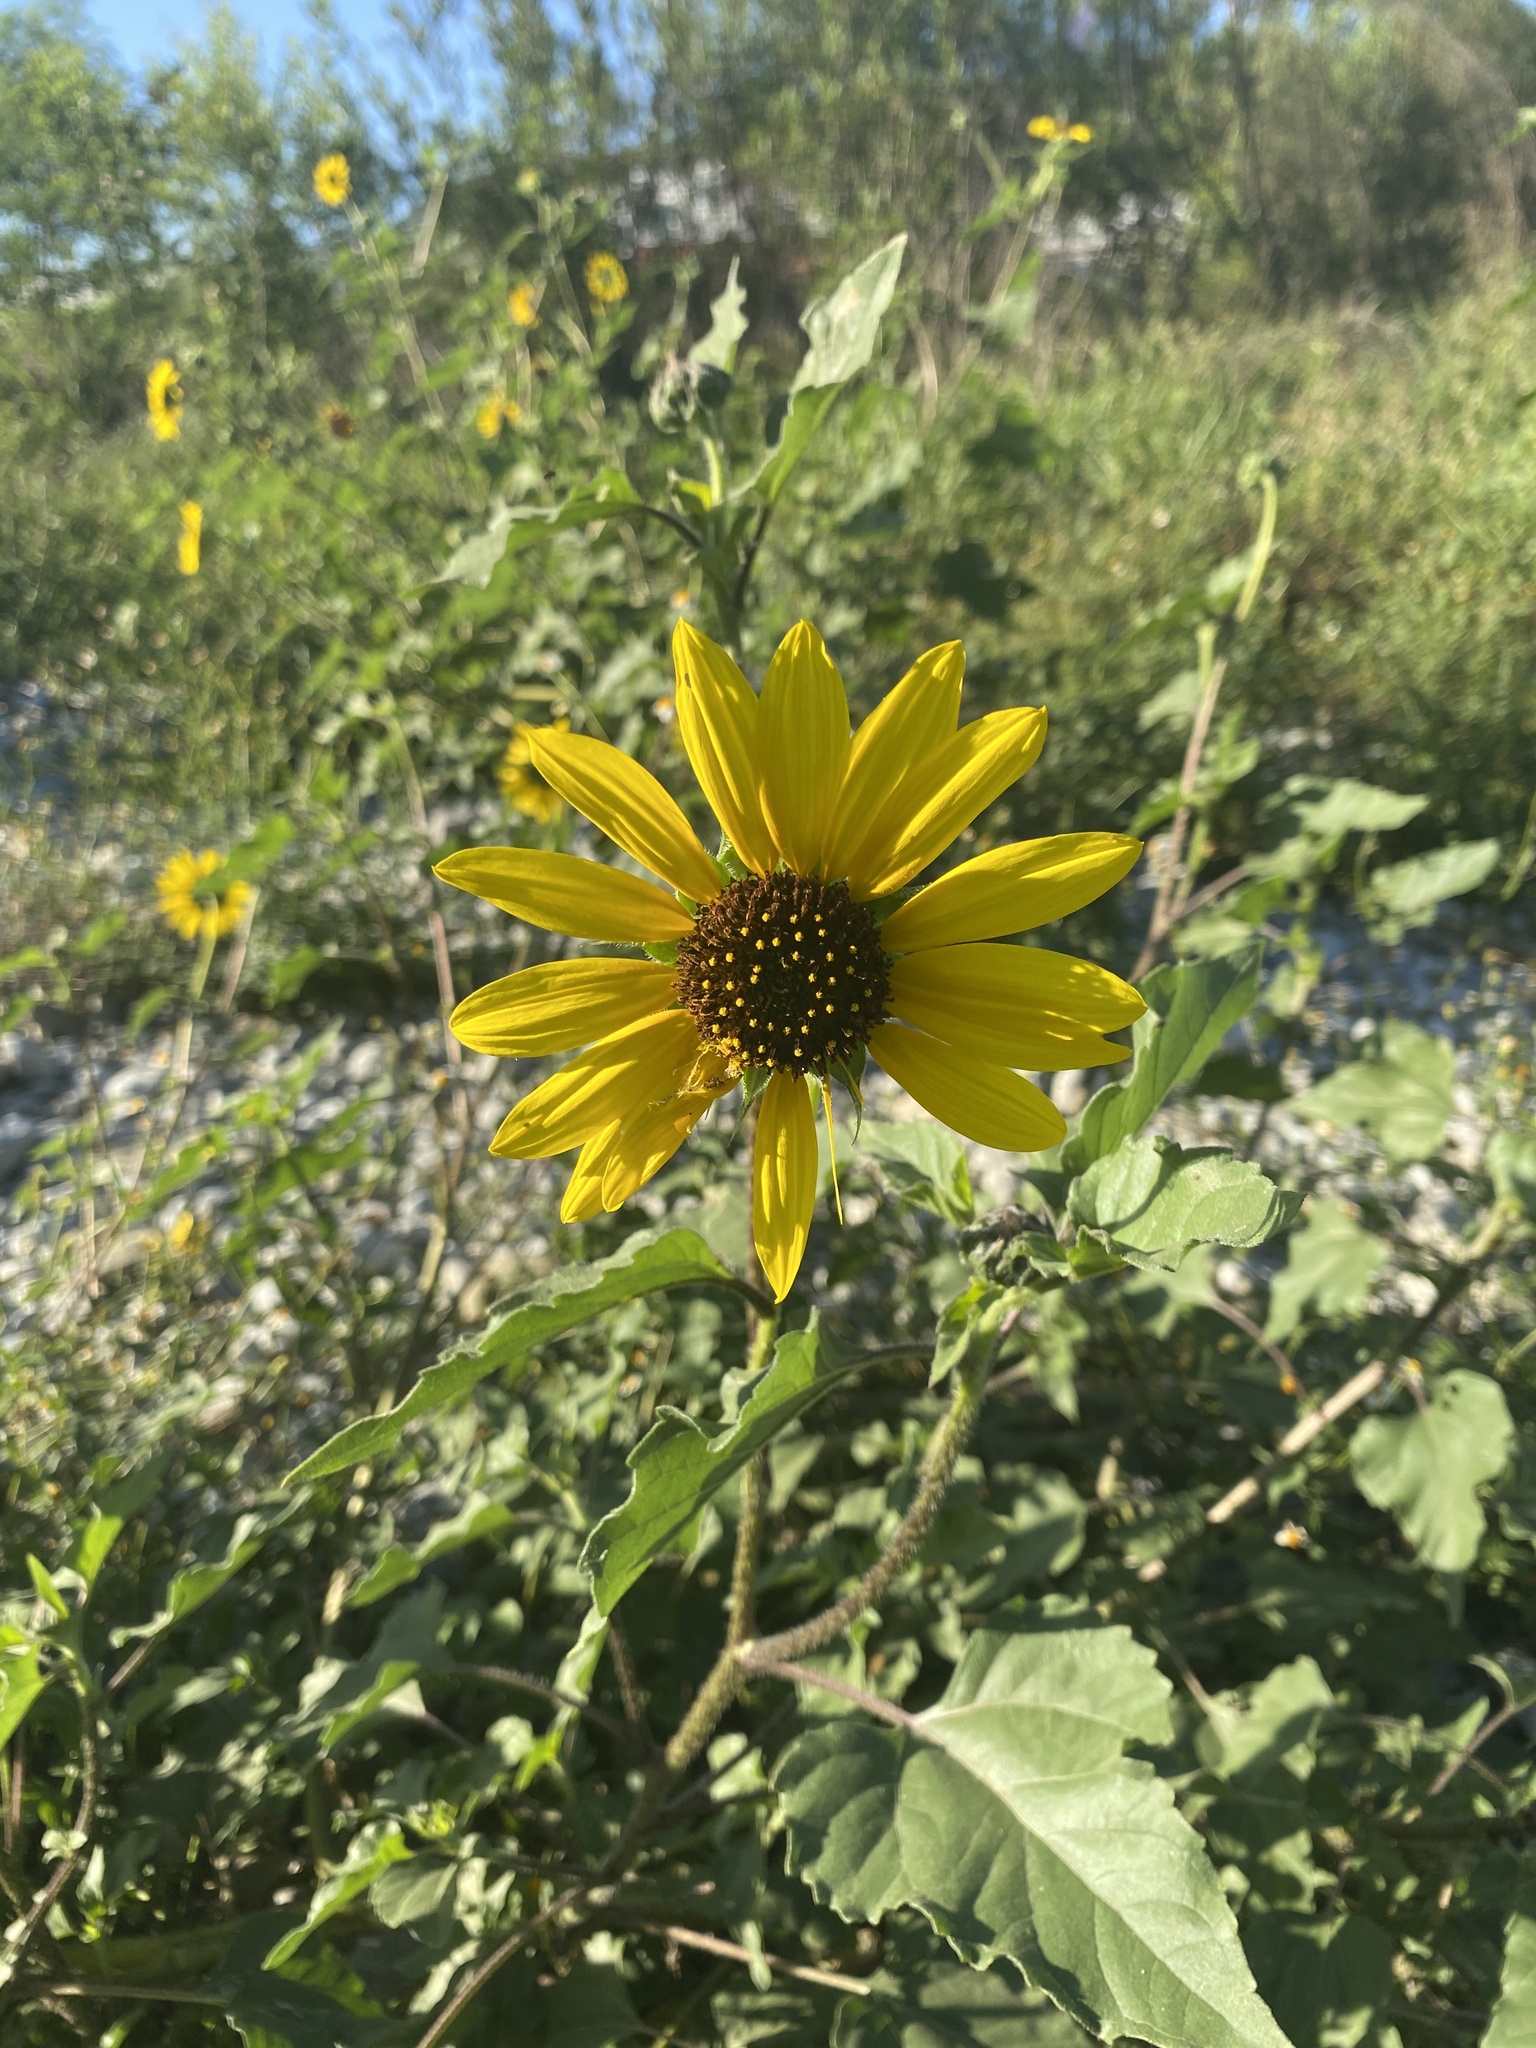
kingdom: Plantae
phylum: Tracheophyta
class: Magnoliopsida
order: Asterales
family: Asteraceae
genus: Helianthus
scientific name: Helianthus annuus
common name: Sunflower
